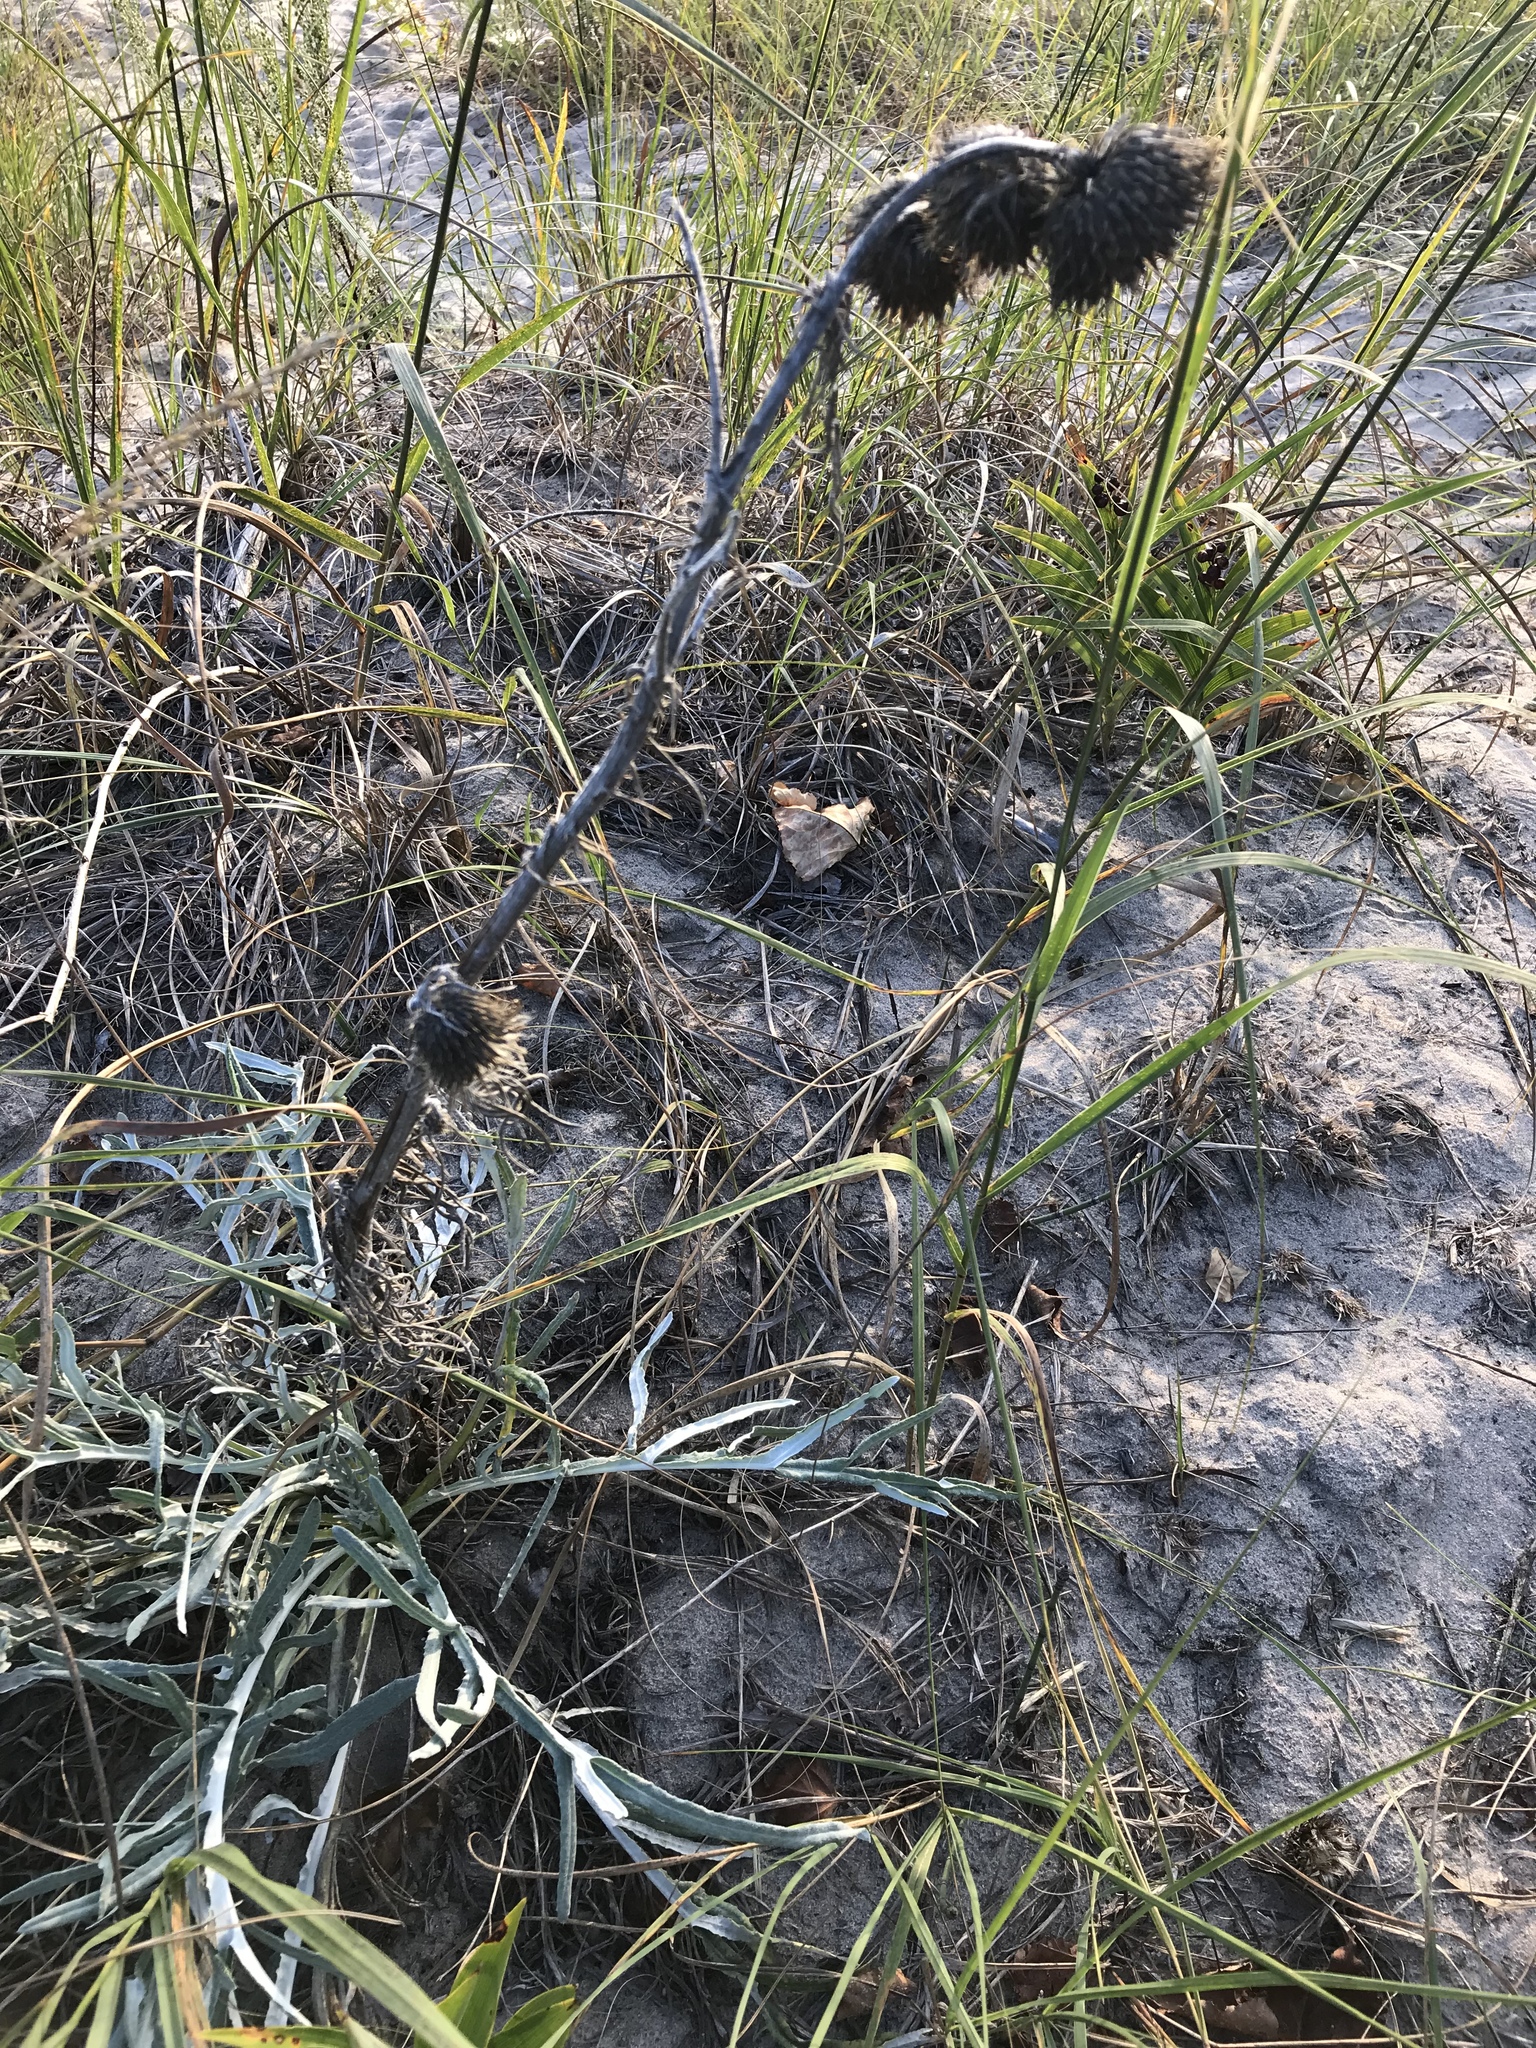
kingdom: Plantae
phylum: Tracheophyta
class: Magnoliopsida
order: Asterales
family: Asteraceae
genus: Cirsium
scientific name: Cirsium pitcheri
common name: Dune thistle
